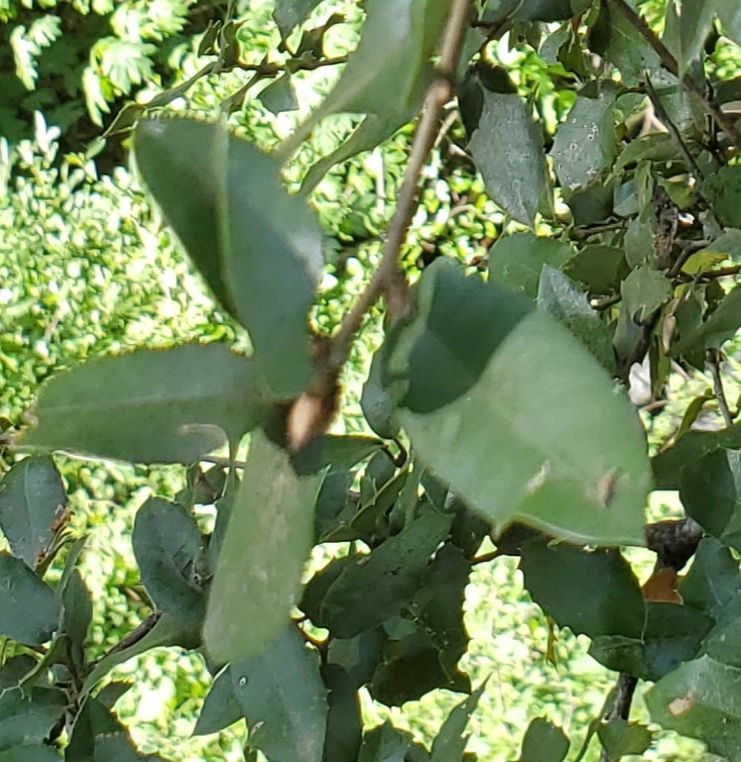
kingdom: Plantae
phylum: Tracheophyta
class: Magnoliopsida
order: Fagales
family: Fagaceae
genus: Quercus
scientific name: Quercus chrysolepis
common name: Canyon live oak
